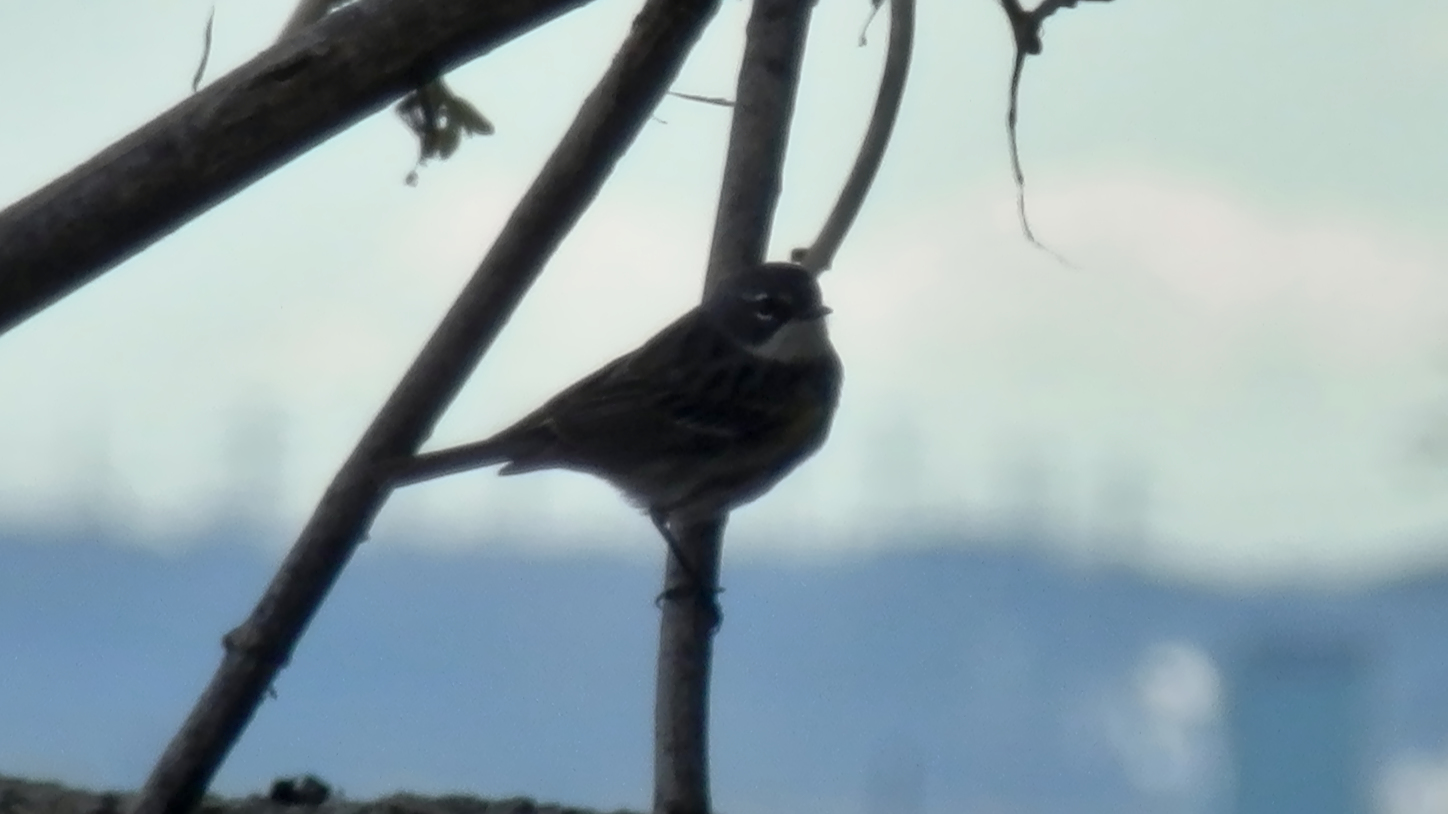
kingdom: Animalia
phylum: Chordata
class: Aves
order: Passeriformes
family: Parulidae
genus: Setophaga
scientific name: Setophaga coronata
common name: Myrtle warbler
